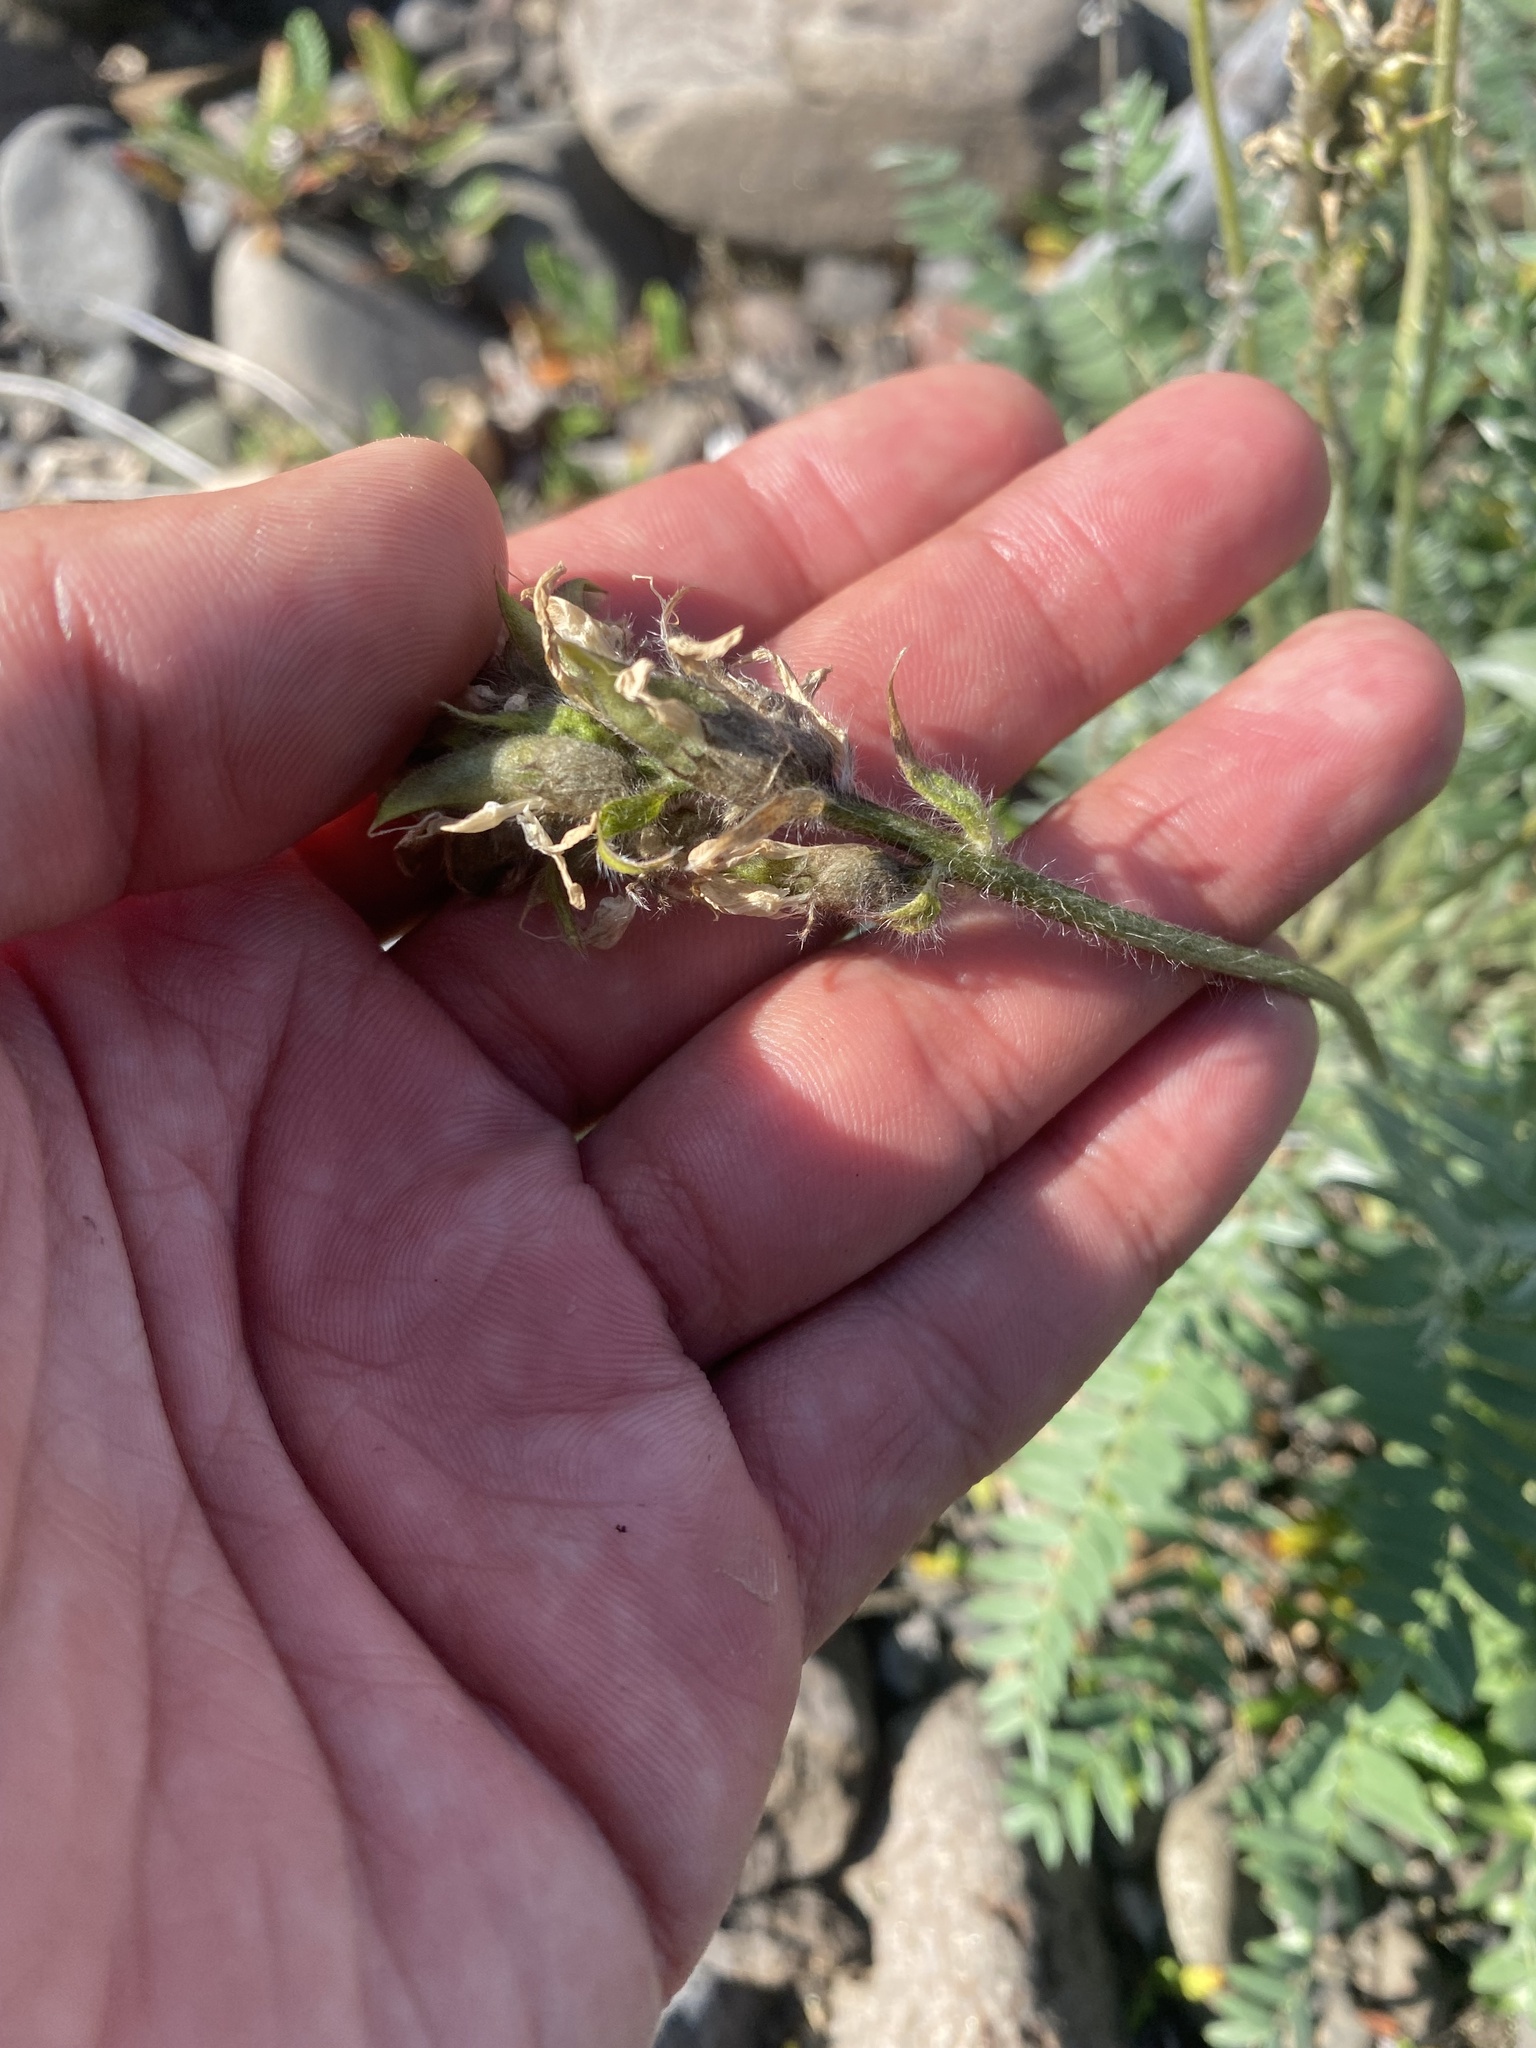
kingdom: Plantae
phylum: Tracheophyta
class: Magnoliopsida
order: Fabales
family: Fabaceae
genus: Oxytropis
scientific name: Oxytropis adamsiana
